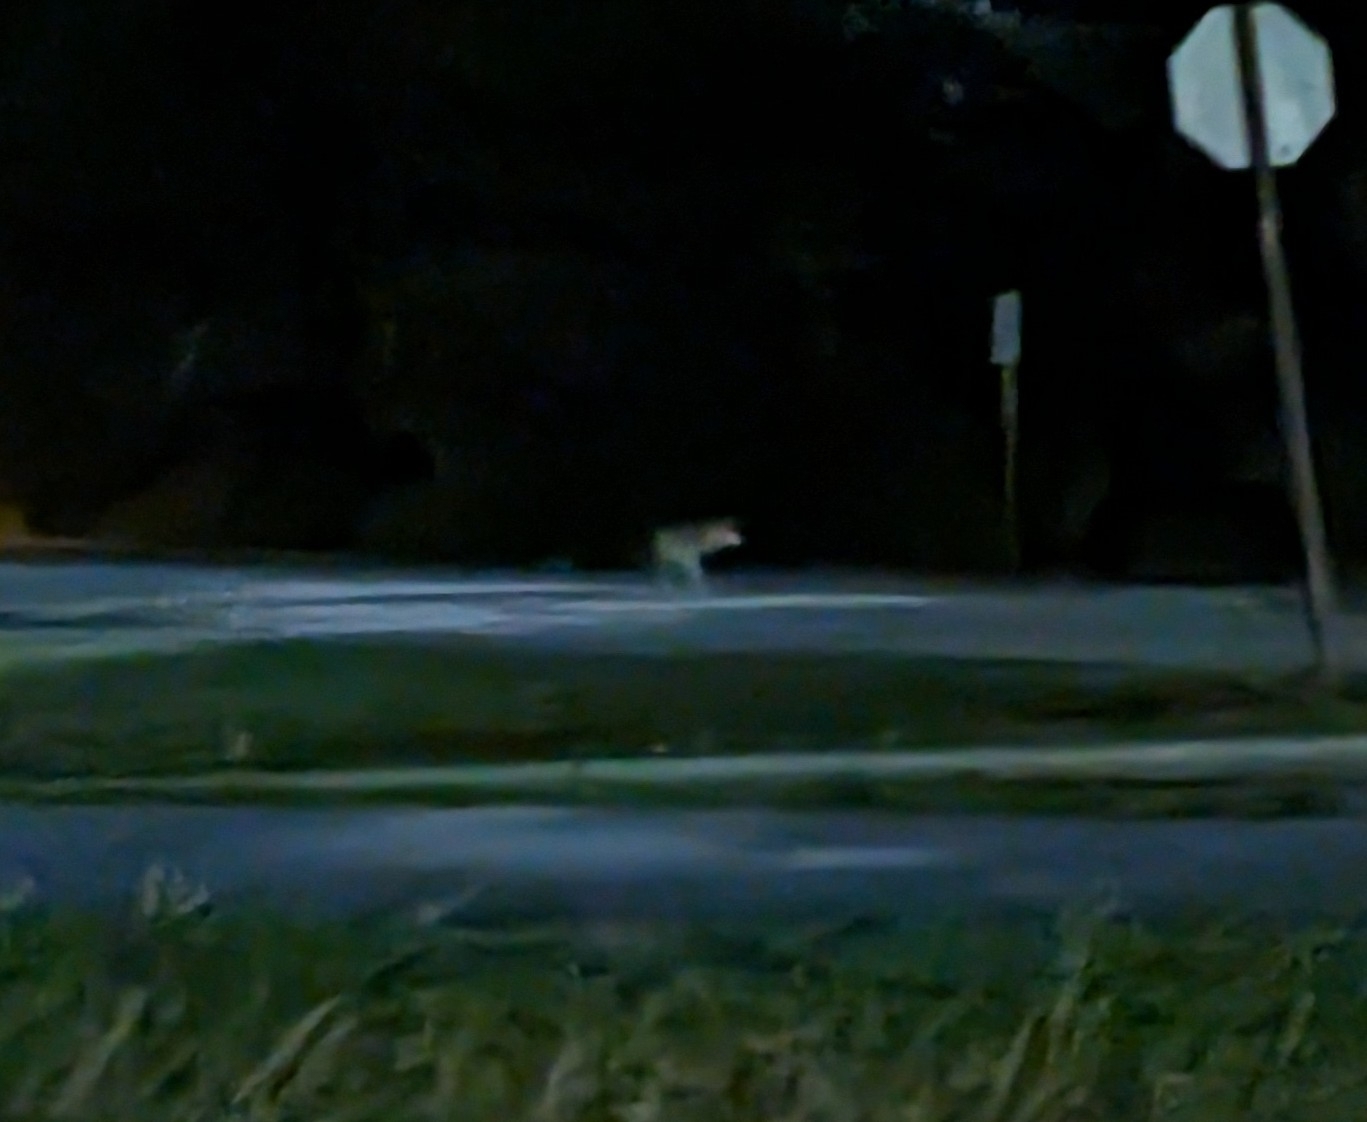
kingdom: Animalia
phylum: Chordata
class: Mammalia
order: Carnivora
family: Canidae
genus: Canis
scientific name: Canis latrans
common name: Coyote
